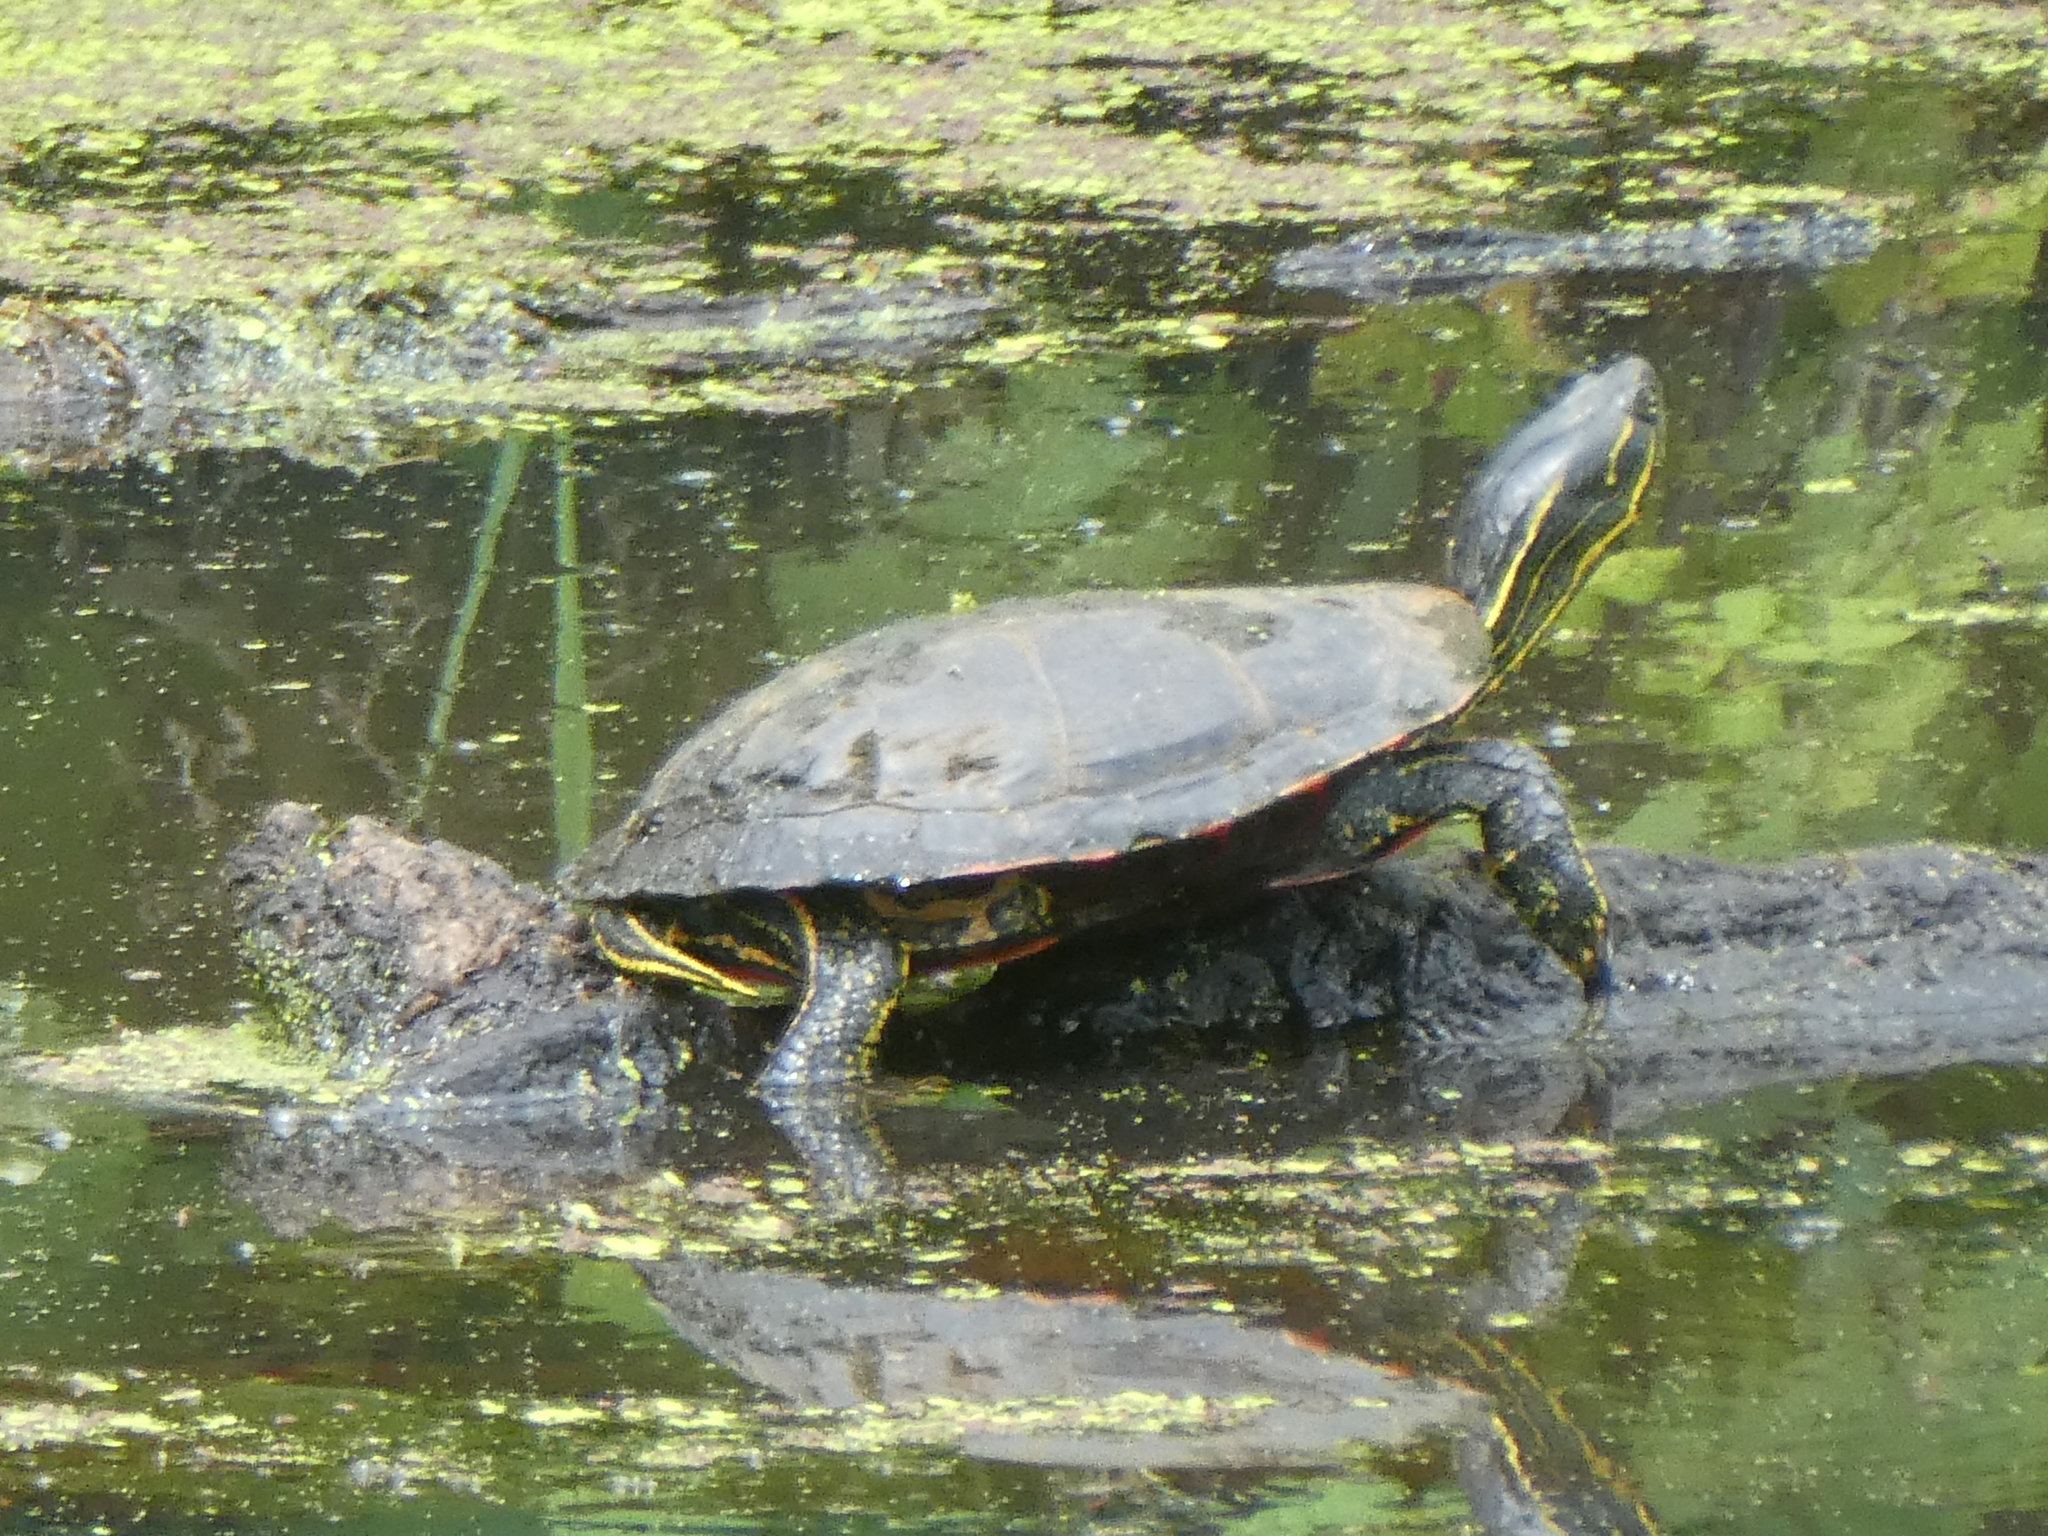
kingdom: Animalia
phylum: Chordata
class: Testudines
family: Emydidae
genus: Chrysemys
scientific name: Chrysemys picta
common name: Painted turtle
